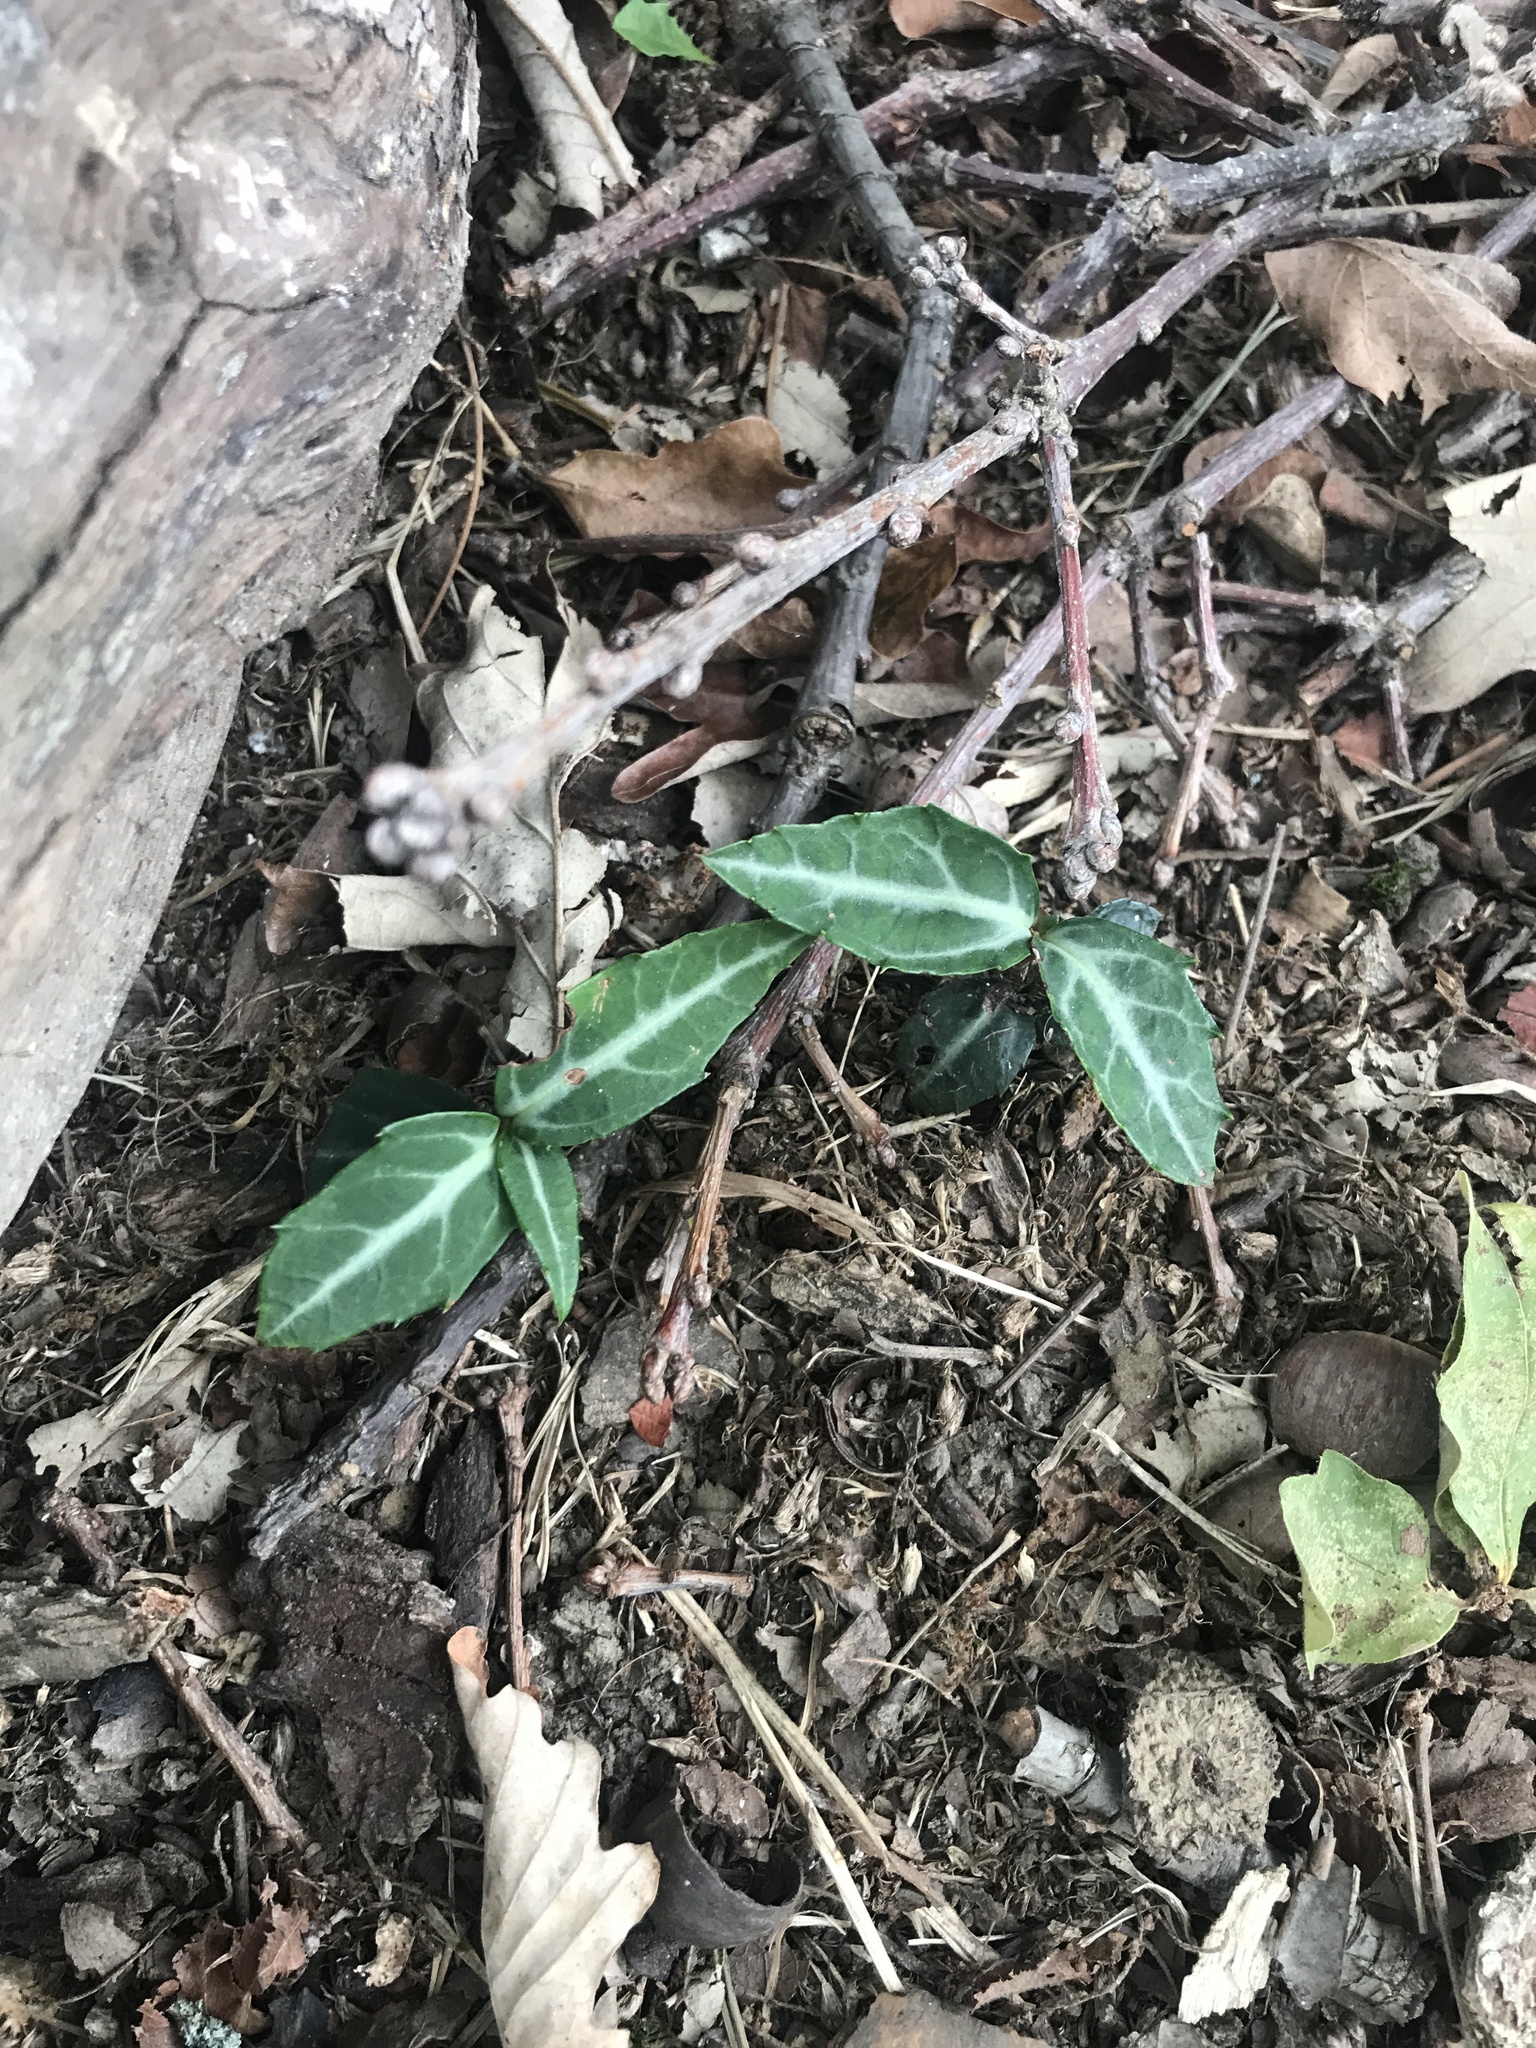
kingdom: Plantae
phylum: Tracheophyta
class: Magnoliopsida
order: Ericales
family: Ericaceae
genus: Chimaphila
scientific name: Chimaphila maculata
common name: Spotted pipsissewa
